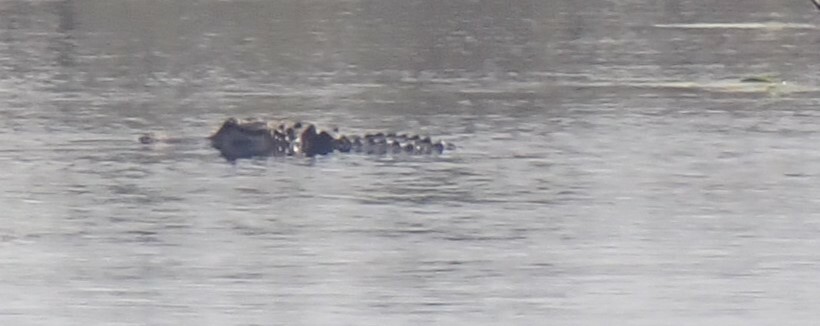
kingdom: Animalia
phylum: Chordata
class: Crocodylia
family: Alligatoridae
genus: Alligator
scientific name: Alligator mississippiensis
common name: American alligator
